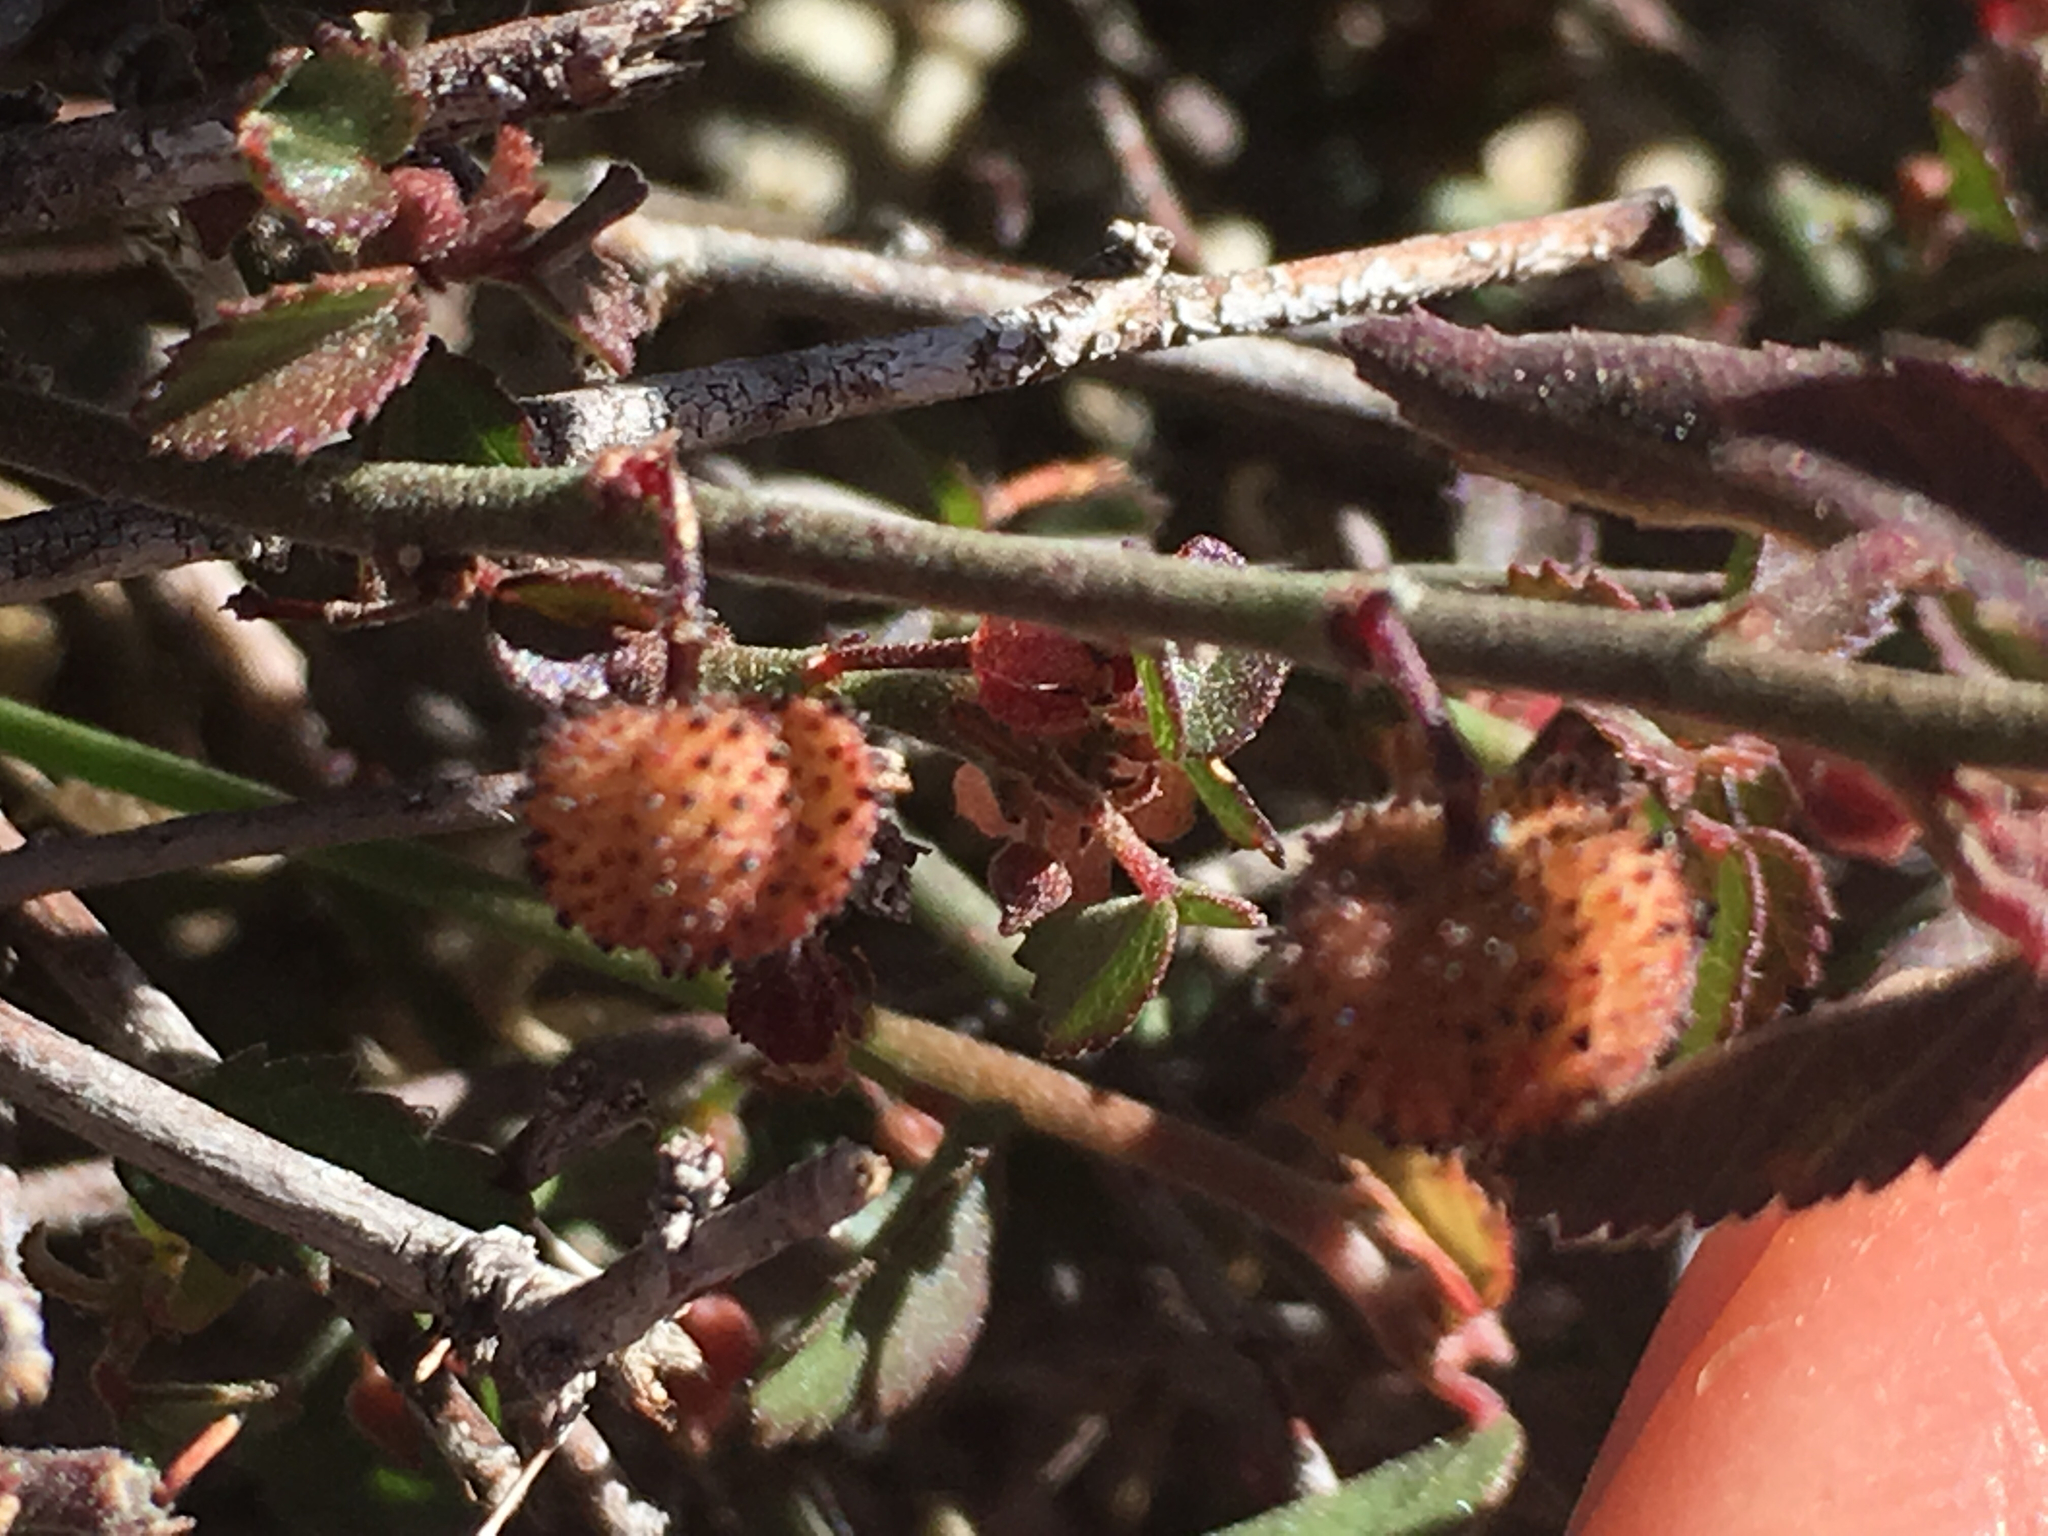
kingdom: Plantae
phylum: Tracheophyta
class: Magnoliopsida
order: Malvales
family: Malvaceae
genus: Ayenia
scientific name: Ayenia compacta
